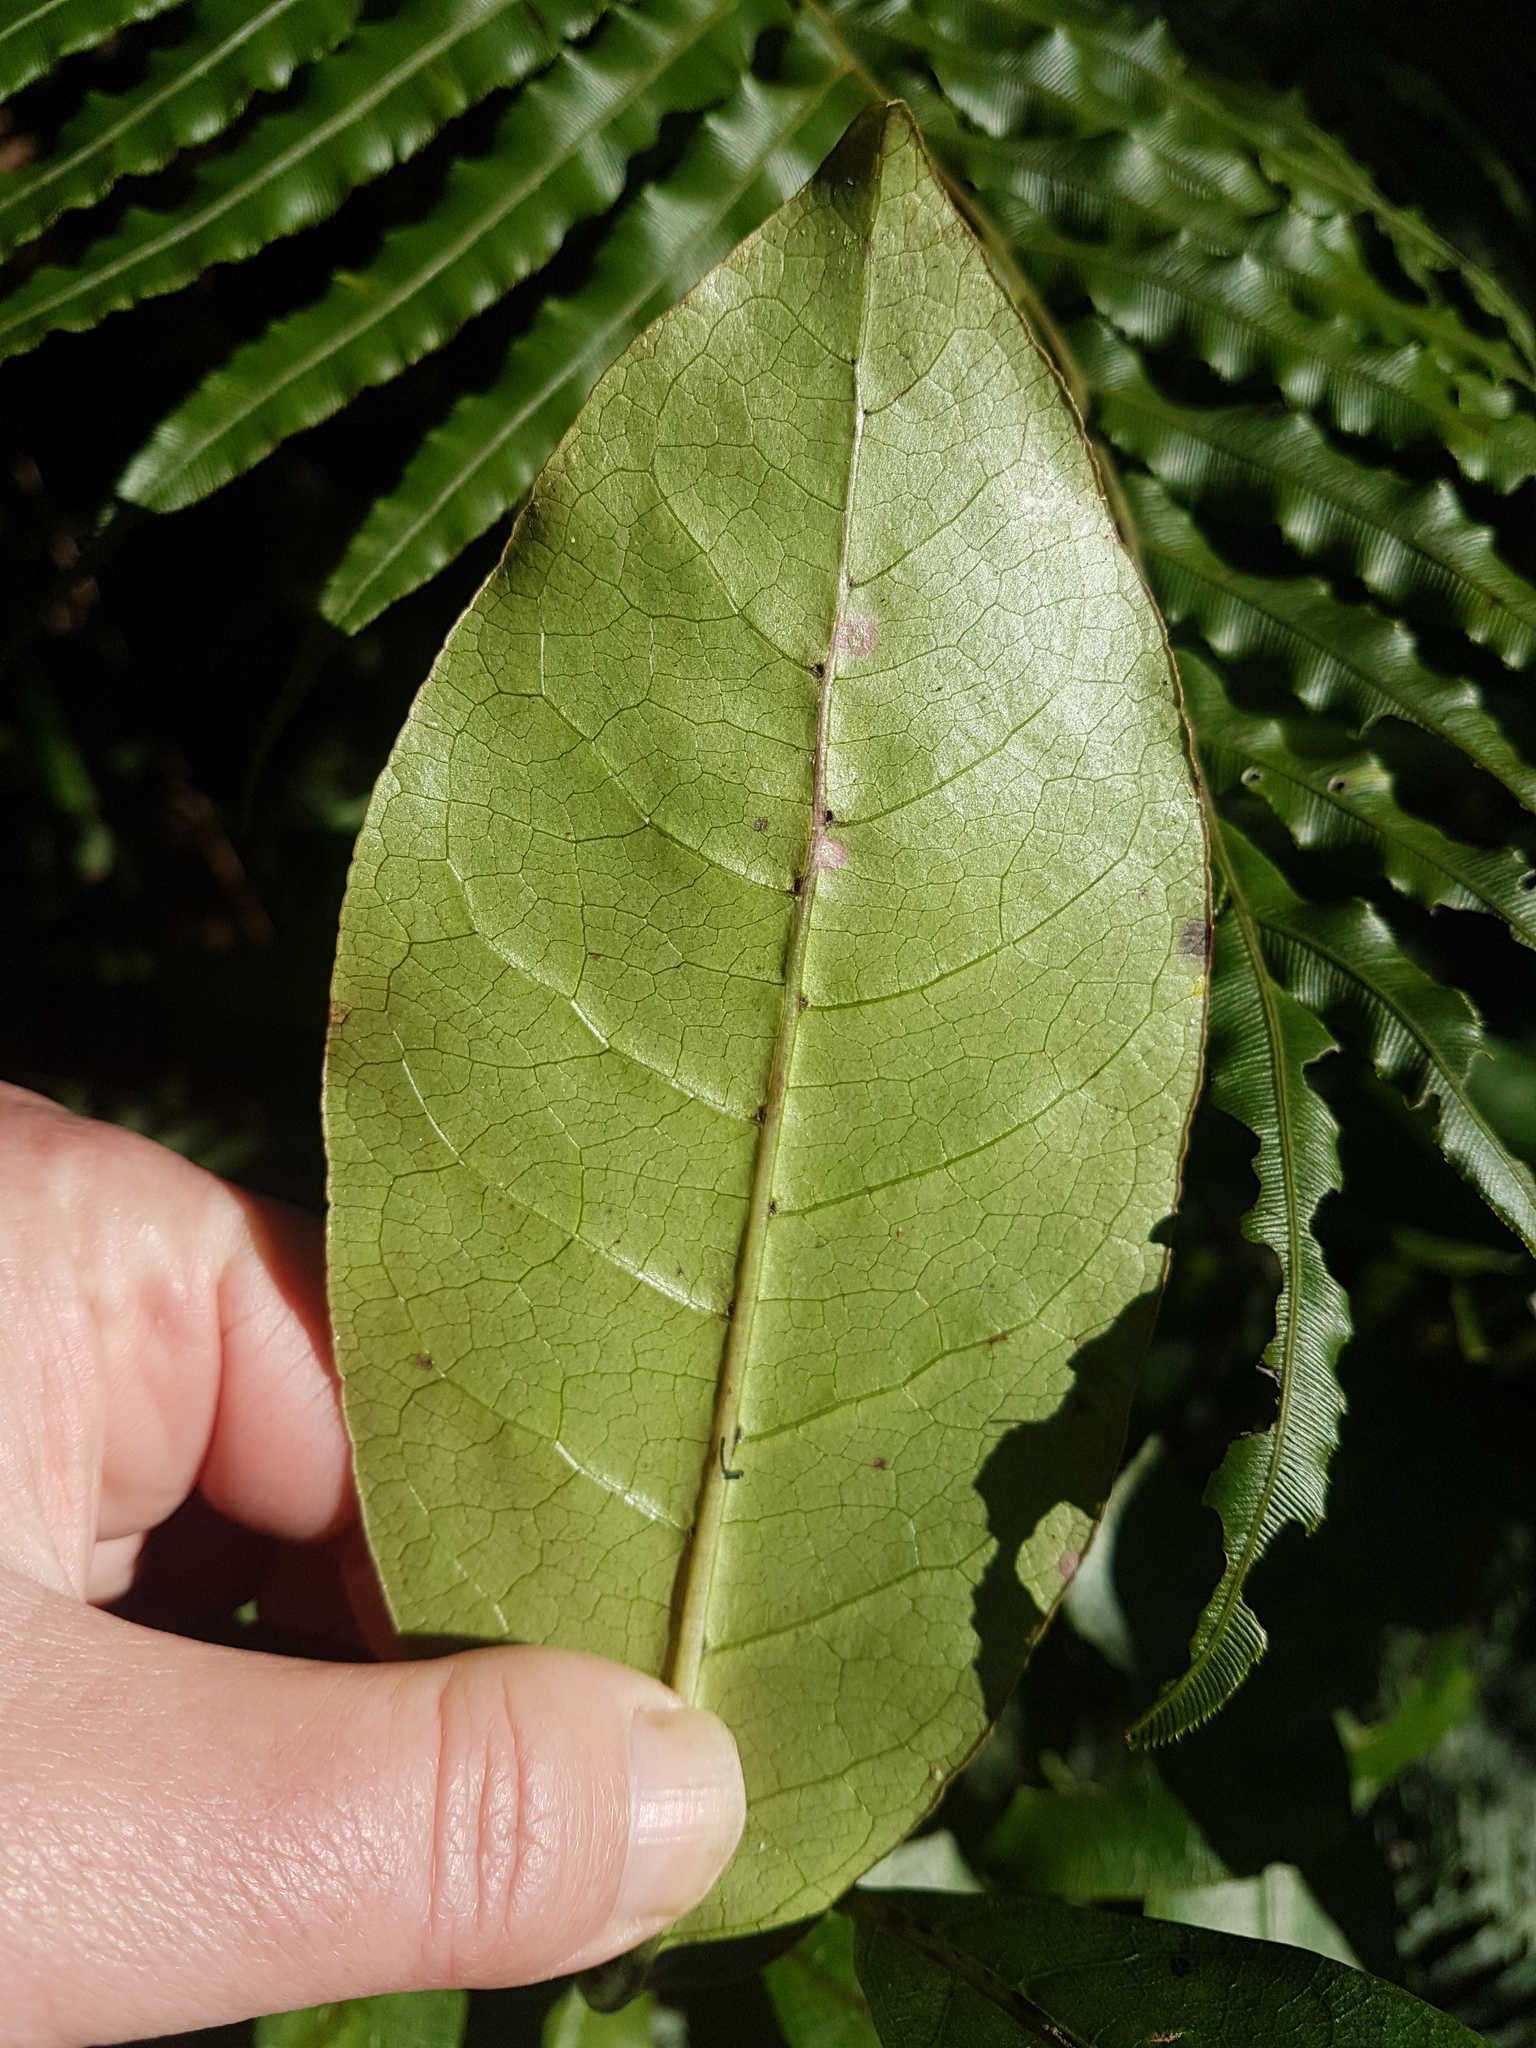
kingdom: Plantae
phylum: Tracheophyta
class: Magnoliopsida
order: Gentianales
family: Rubiaceae
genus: Coprosma
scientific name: Coprosma autumnalis
